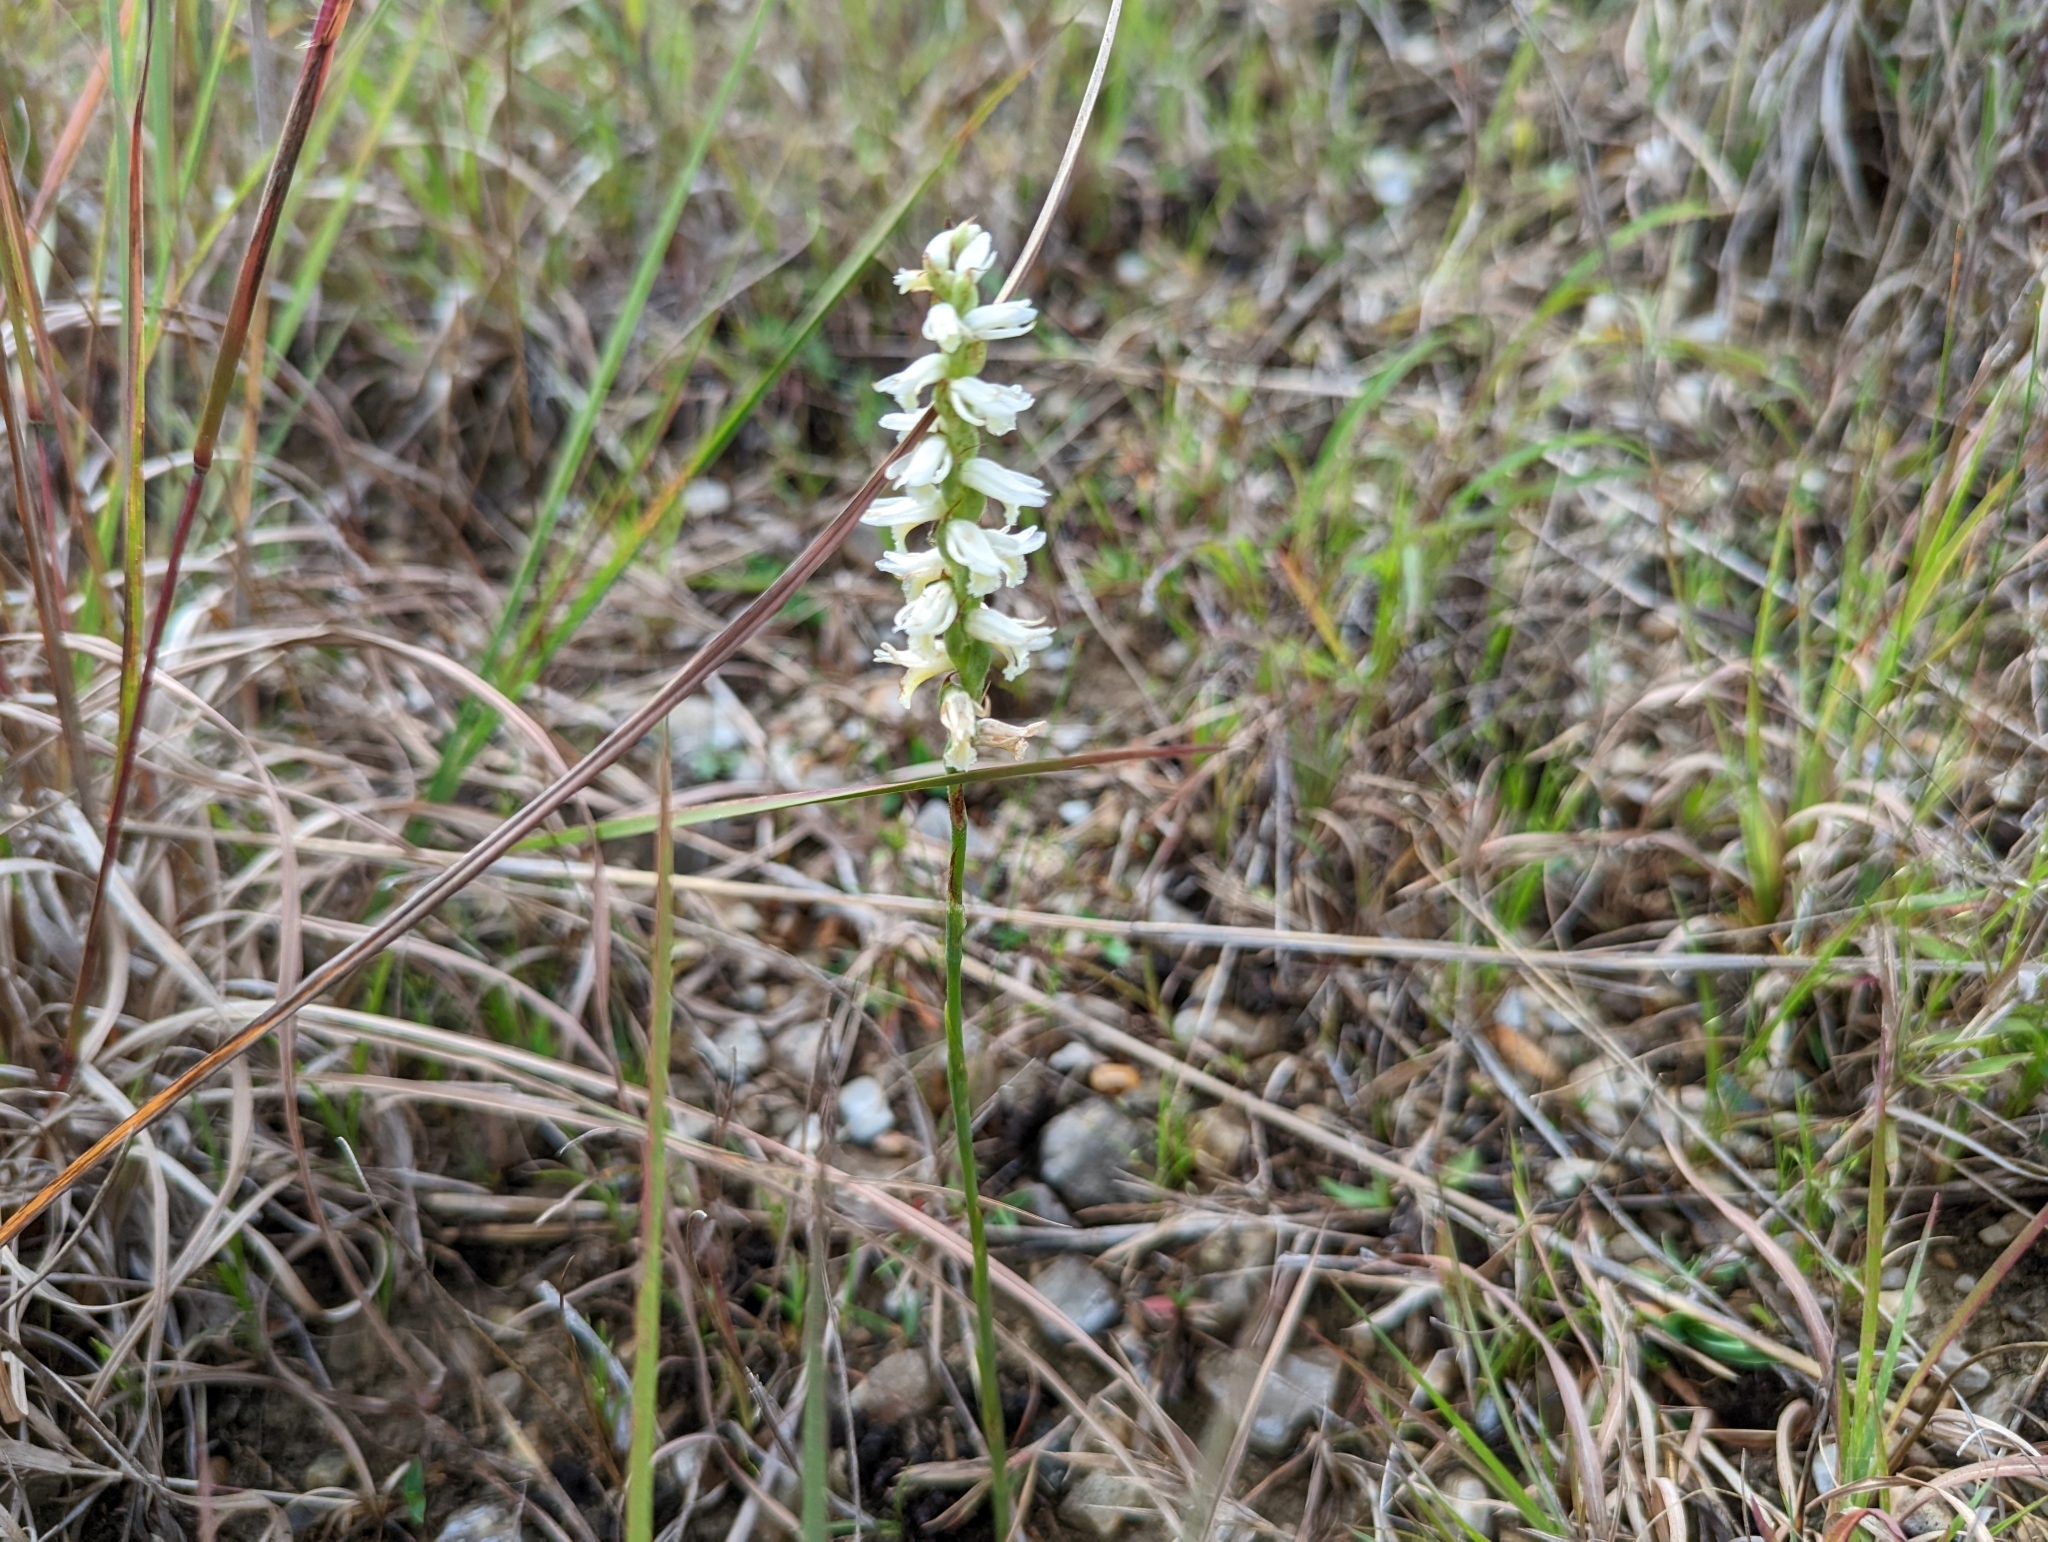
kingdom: Plantae
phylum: Tracheophyta
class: Liliopsida
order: Asparagales
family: Orchidaceae
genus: Spiranthes
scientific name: Spiranthes magnicamporum
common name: Great plains ladies'-tresses
